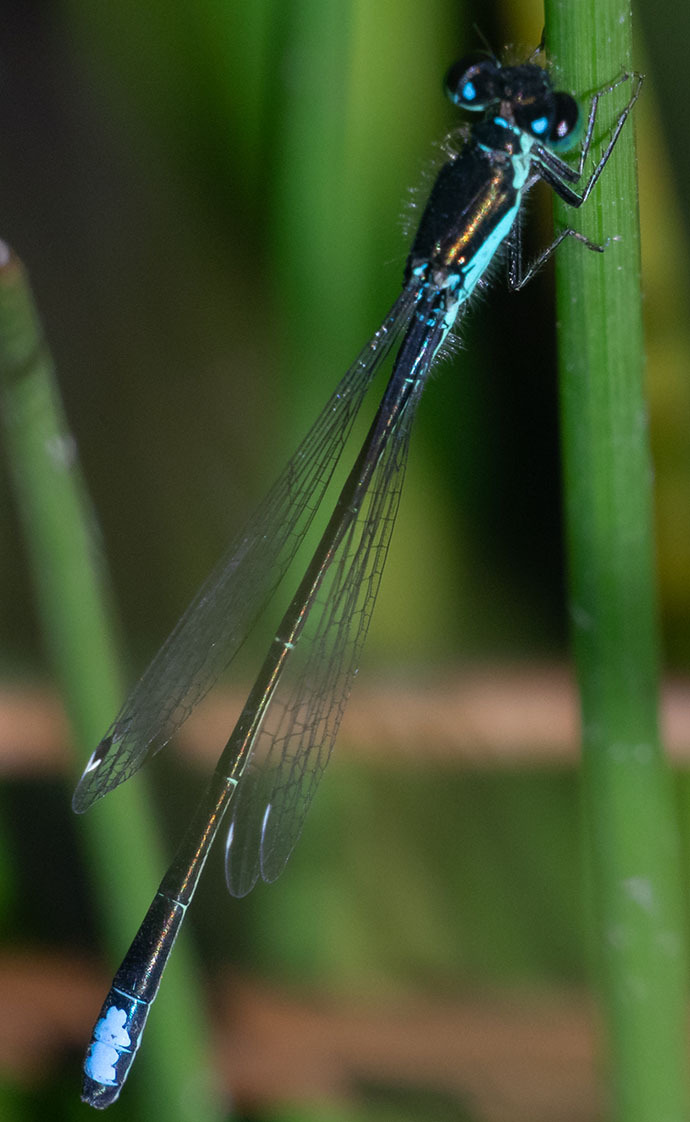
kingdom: Animalia
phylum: Arthropoda
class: Insecta
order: Odonata
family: Coenagrionidae
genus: Ischnura
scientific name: Ischnura denticollis
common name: Black-fronted forktail
